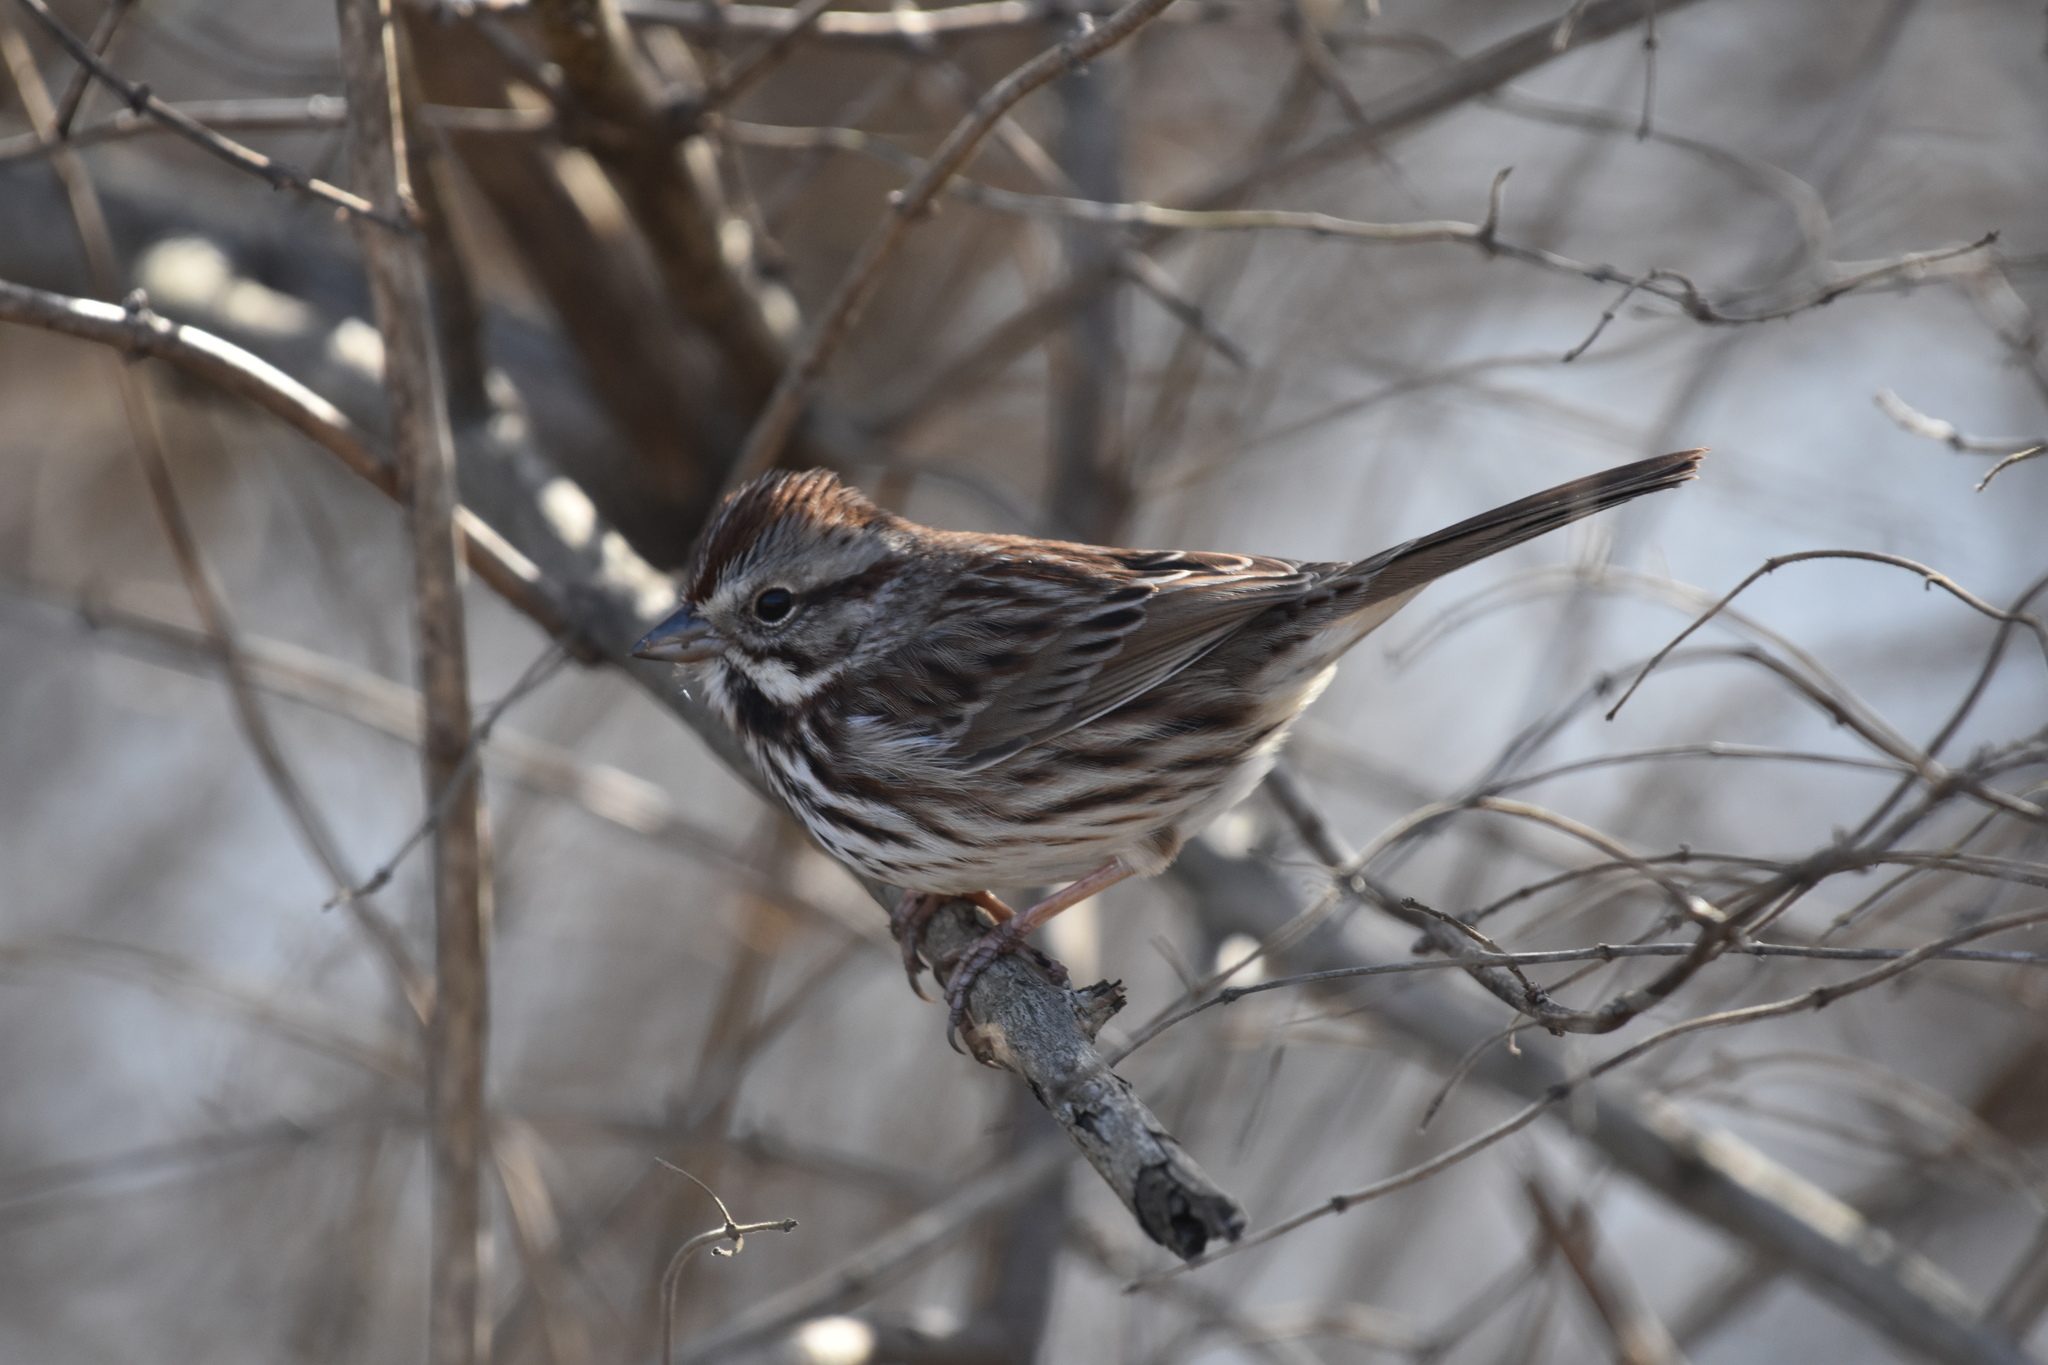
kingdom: Animalia
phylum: Chordata
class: Aves
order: Passeriformes
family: Passerellidae
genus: Melospiza
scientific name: Melospiza melodia
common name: Song sparrow
